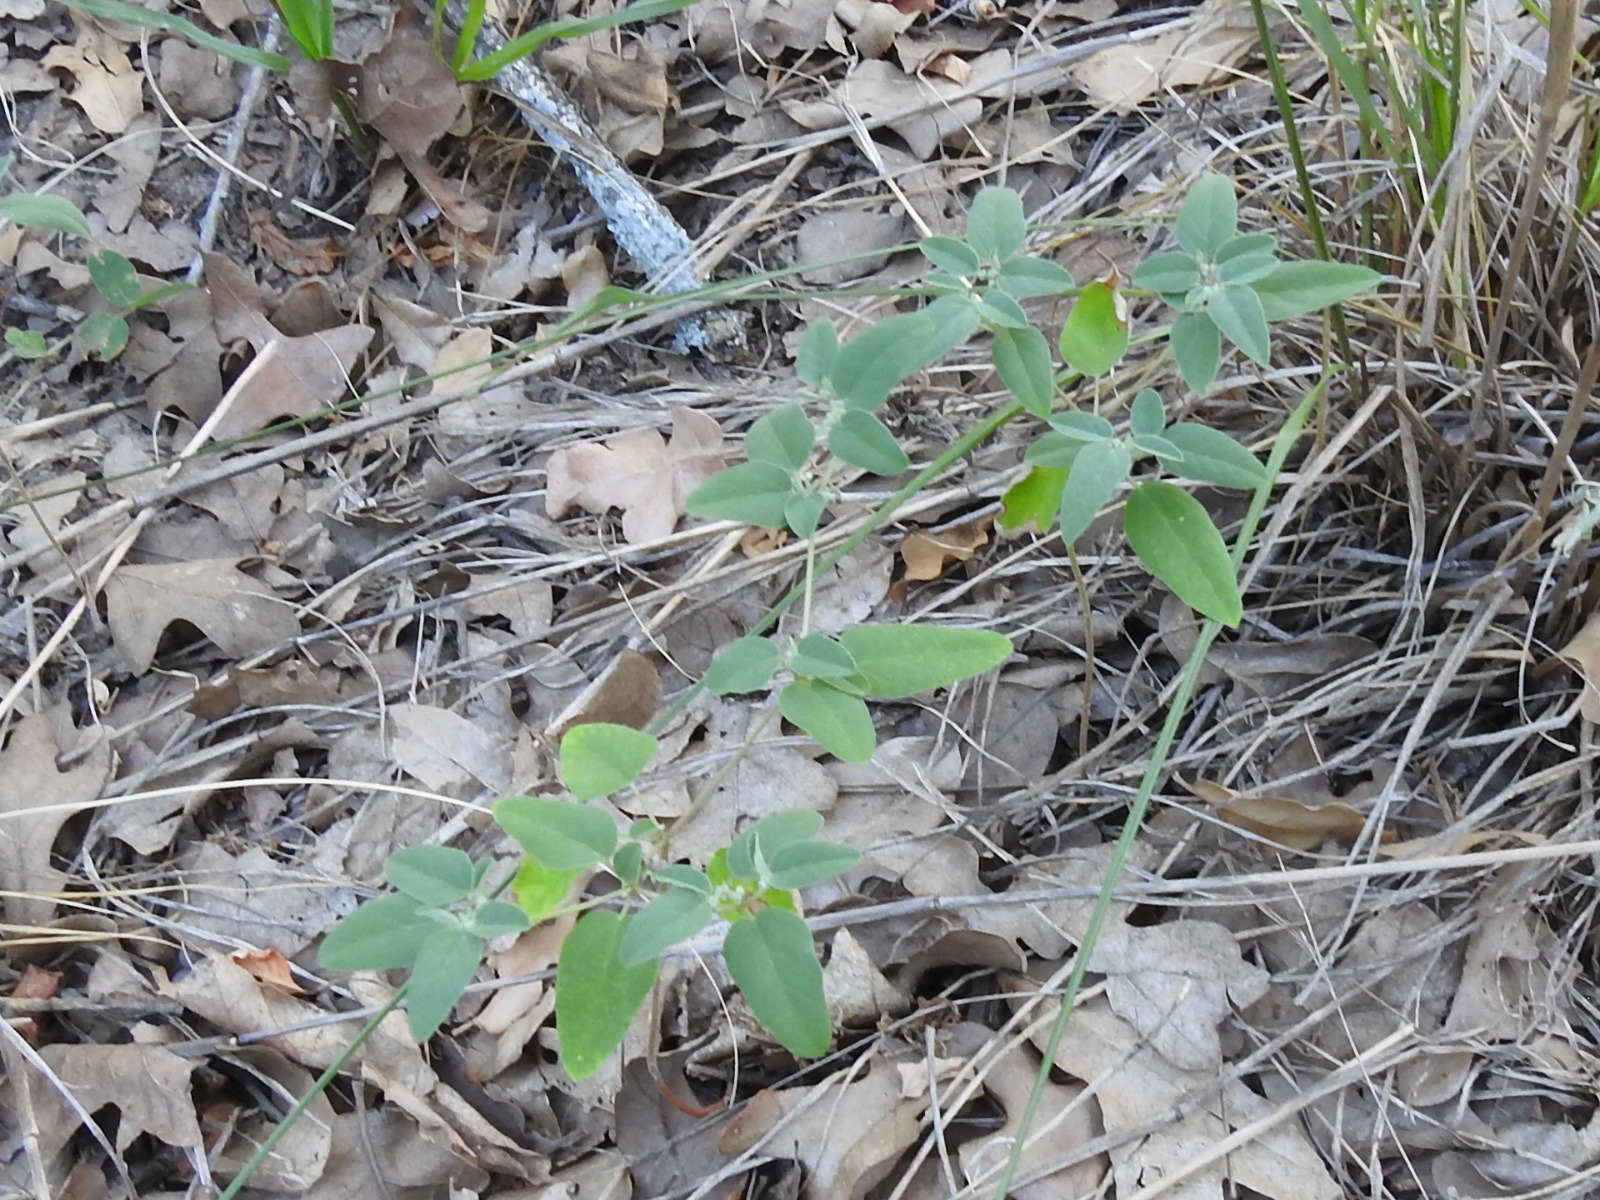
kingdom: Plantae
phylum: Tracheophyta
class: Magnoliopsida
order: Malpighiales
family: Euphorbiaceae
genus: Croton
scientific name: Croton monanthogynus
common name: One-seed croton
